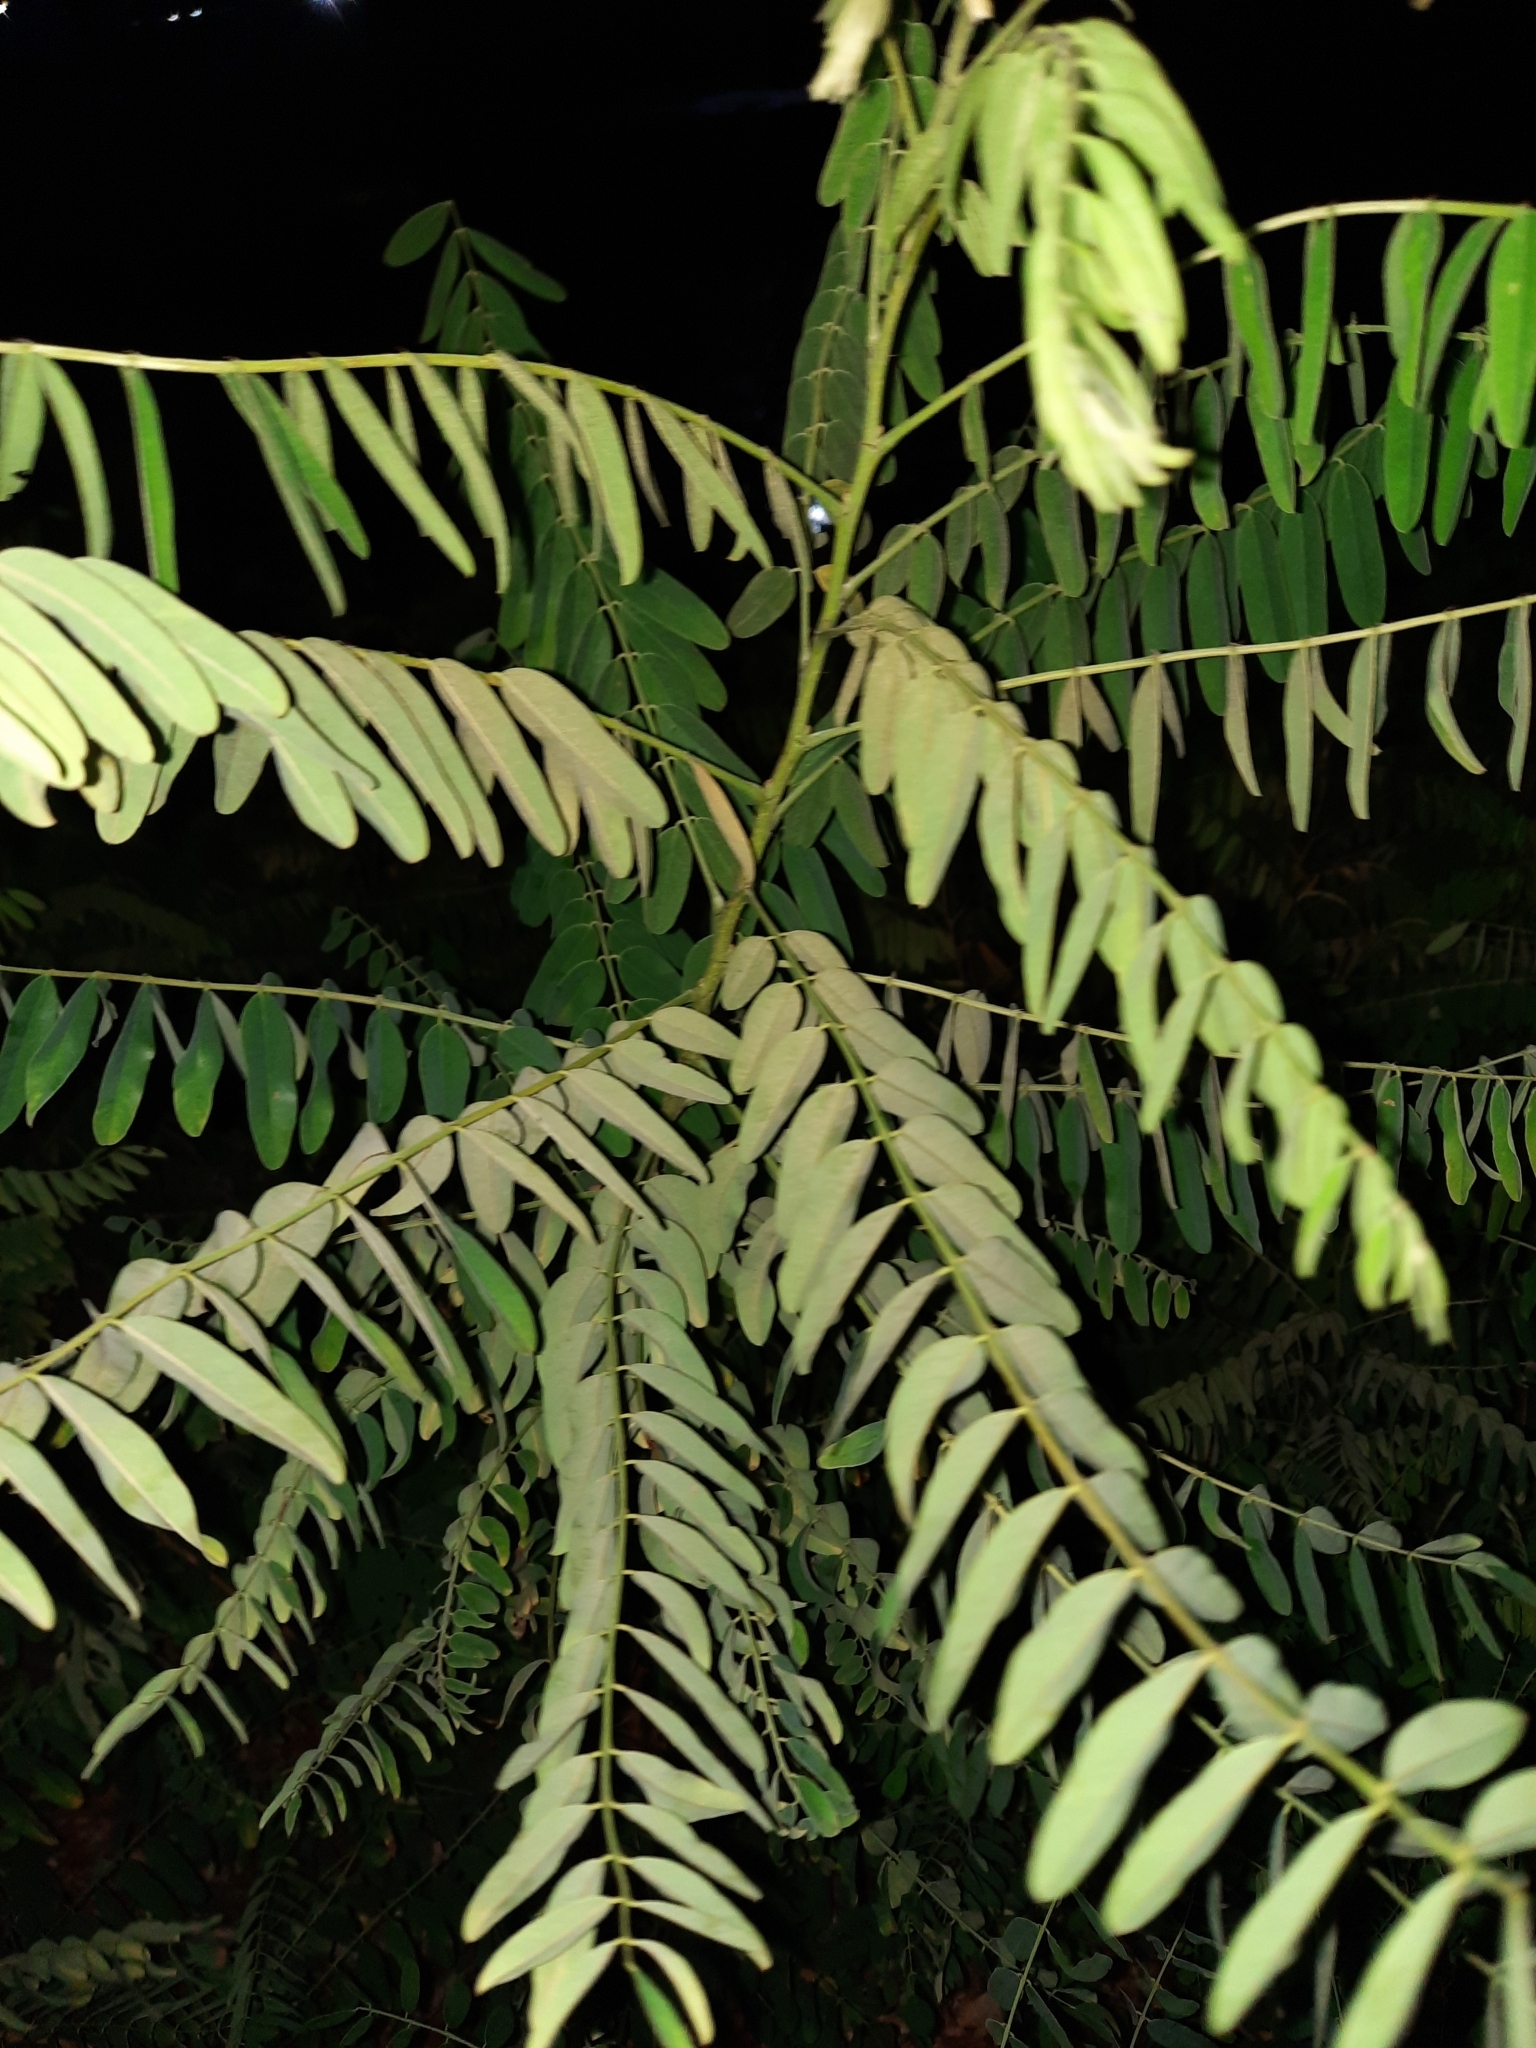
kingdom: Plantae
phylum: Tracheophyta
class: Magnoliopsida
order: Fabales
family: Fabaceae
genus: Amorpha
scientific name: Amorpha fruticosa
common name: False indigo
